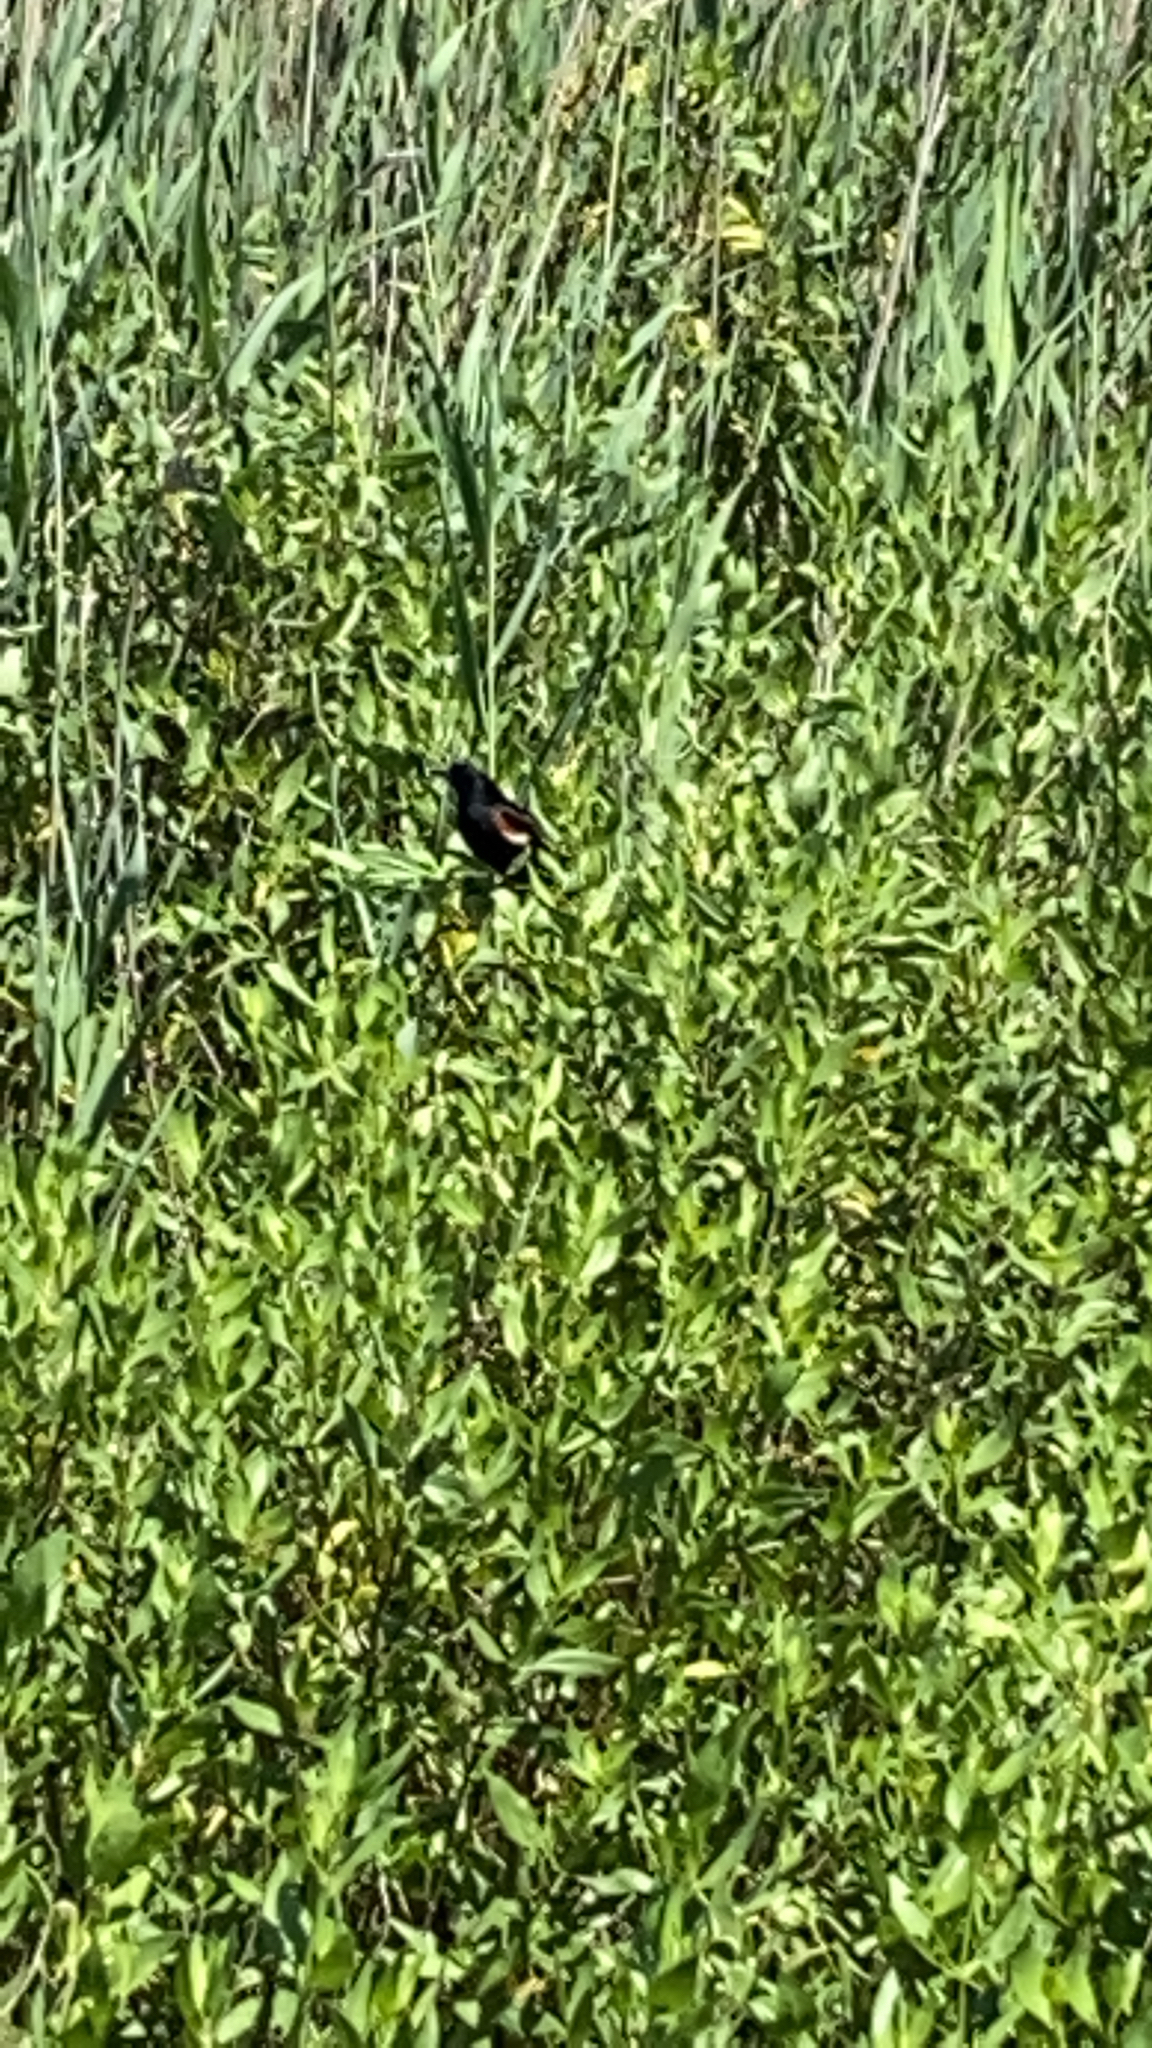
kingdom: Animalia
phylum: Chordata
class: Aves
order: Passeriformes
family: Icteridae
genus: Agelaius
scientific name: Agelaius phoeniceus
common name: Red-winged blackbird
